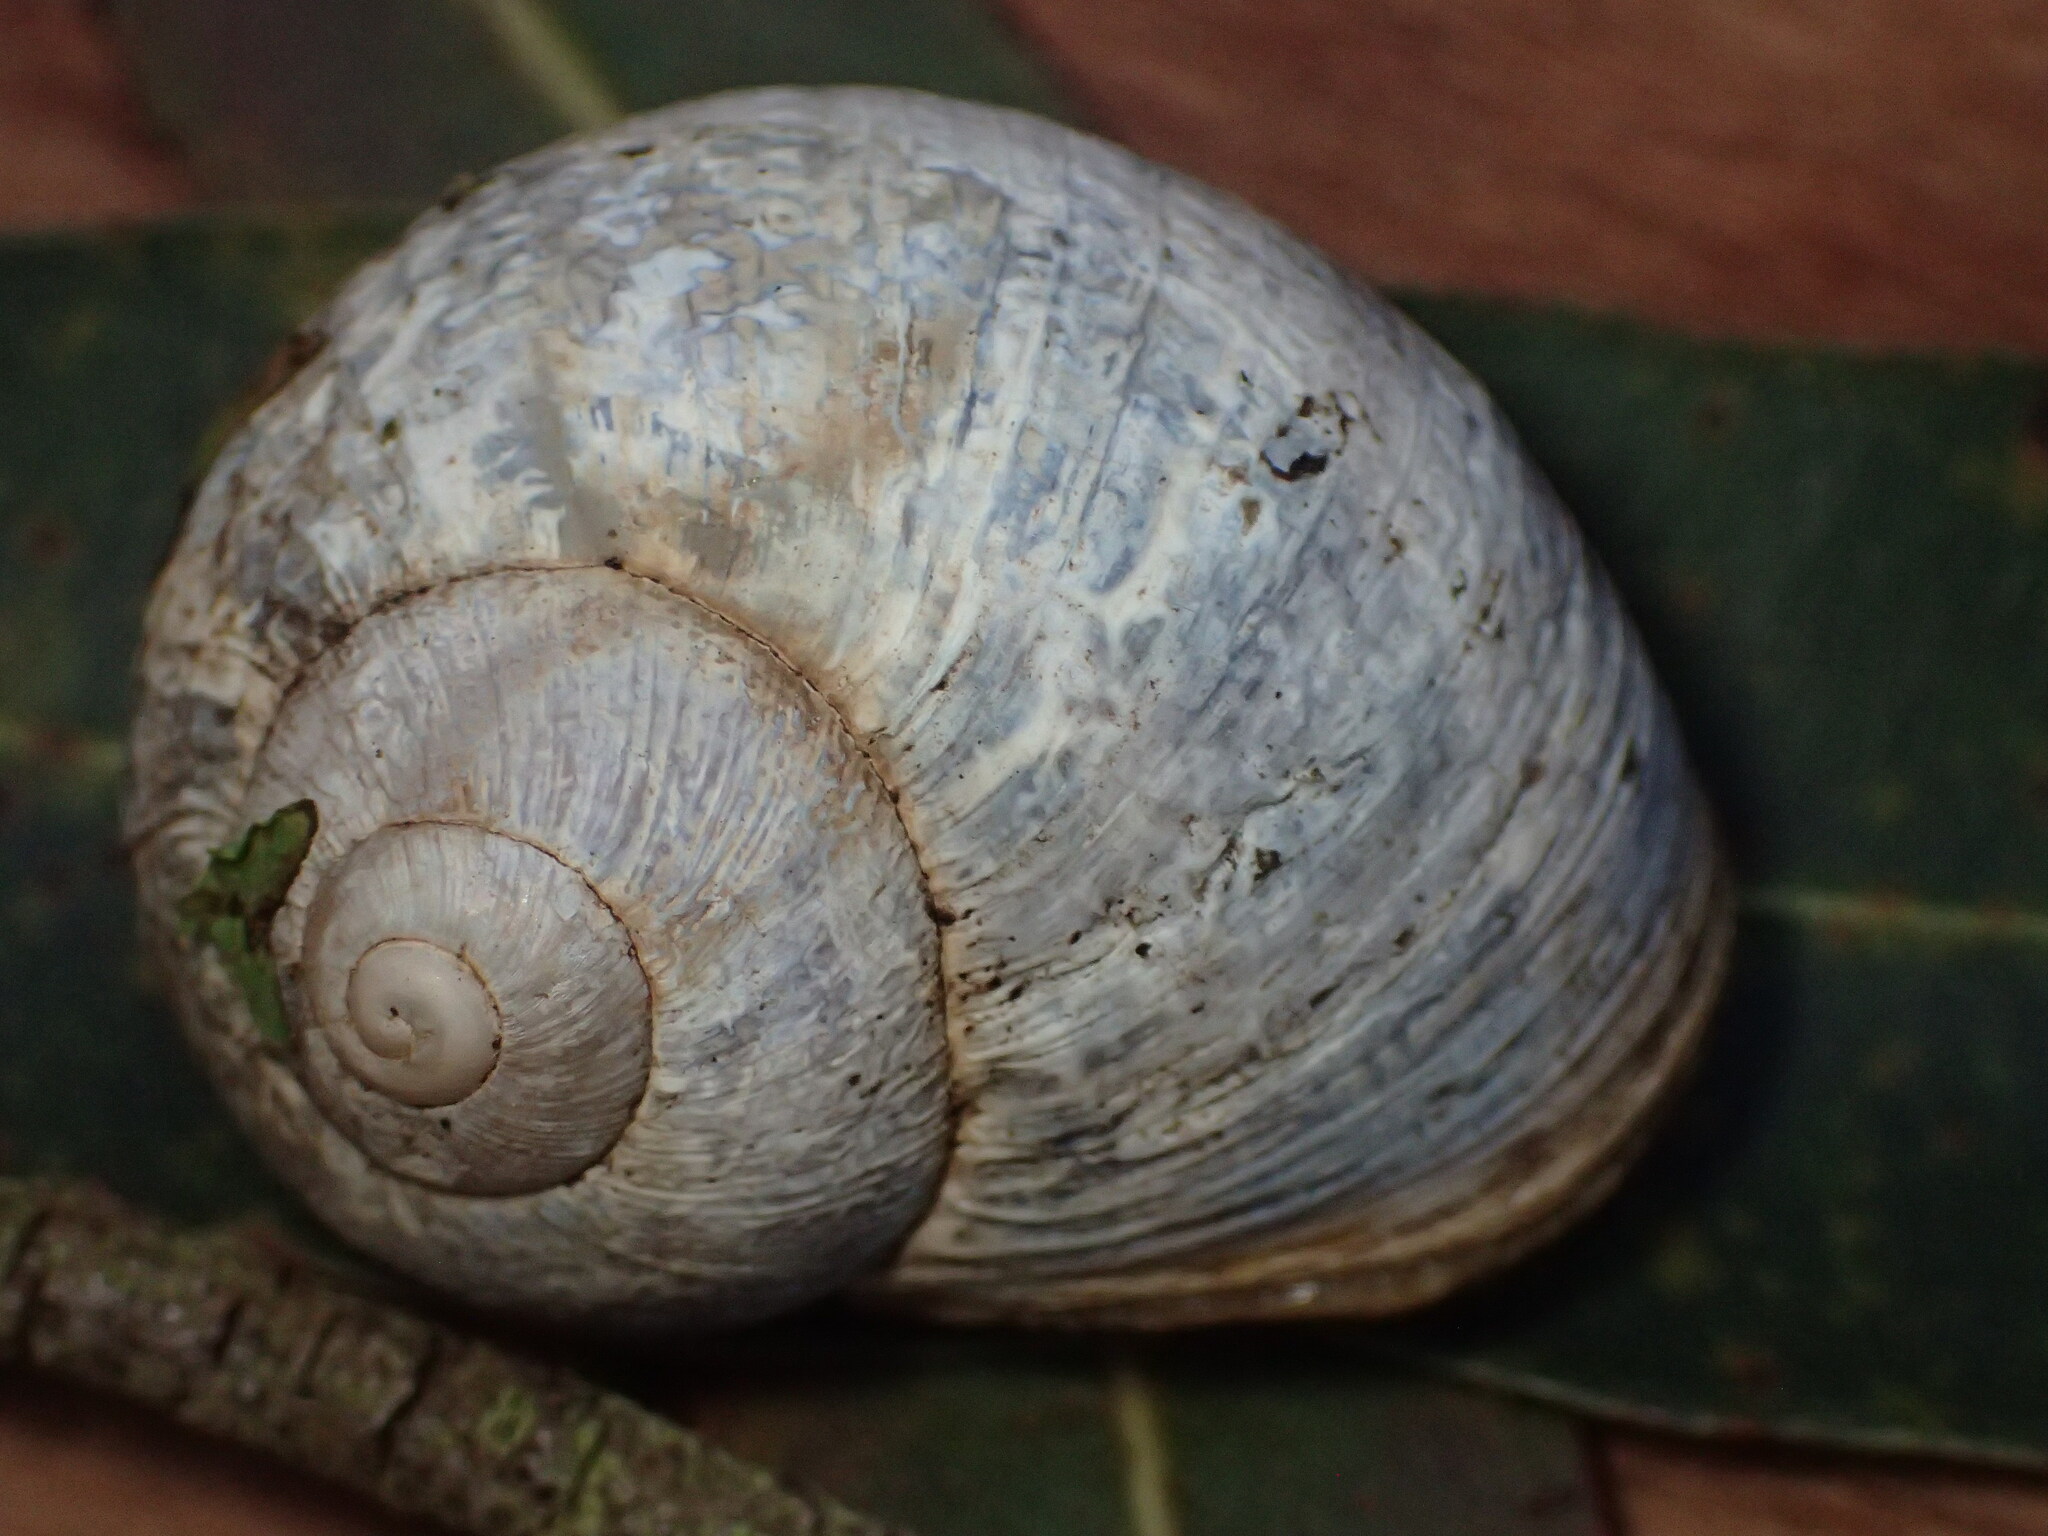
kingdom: Animalia
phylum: Mollusca
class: Gastropoda
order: Stylommatophora
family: Helicidae
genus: Cornu
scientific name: Cornu aspersum
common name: Brown garden snail
